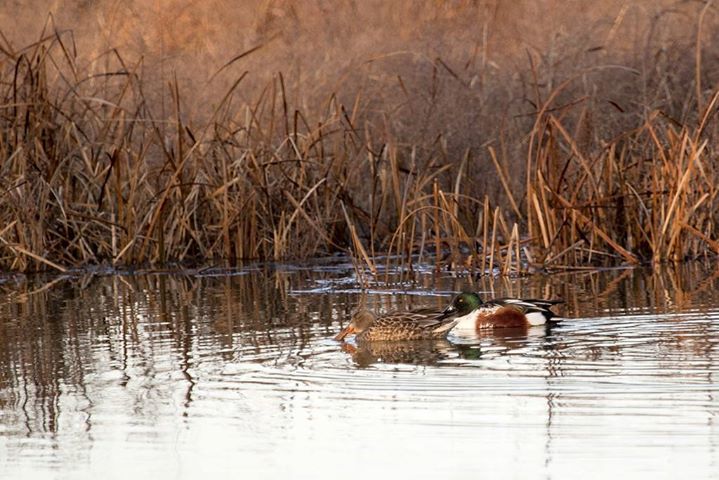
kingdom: Animalia
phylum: Chordata
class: Aves
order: Anseriformes
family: Anatidae
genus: Spatula
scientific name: Spatula clypeata
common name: Northern shoveler
